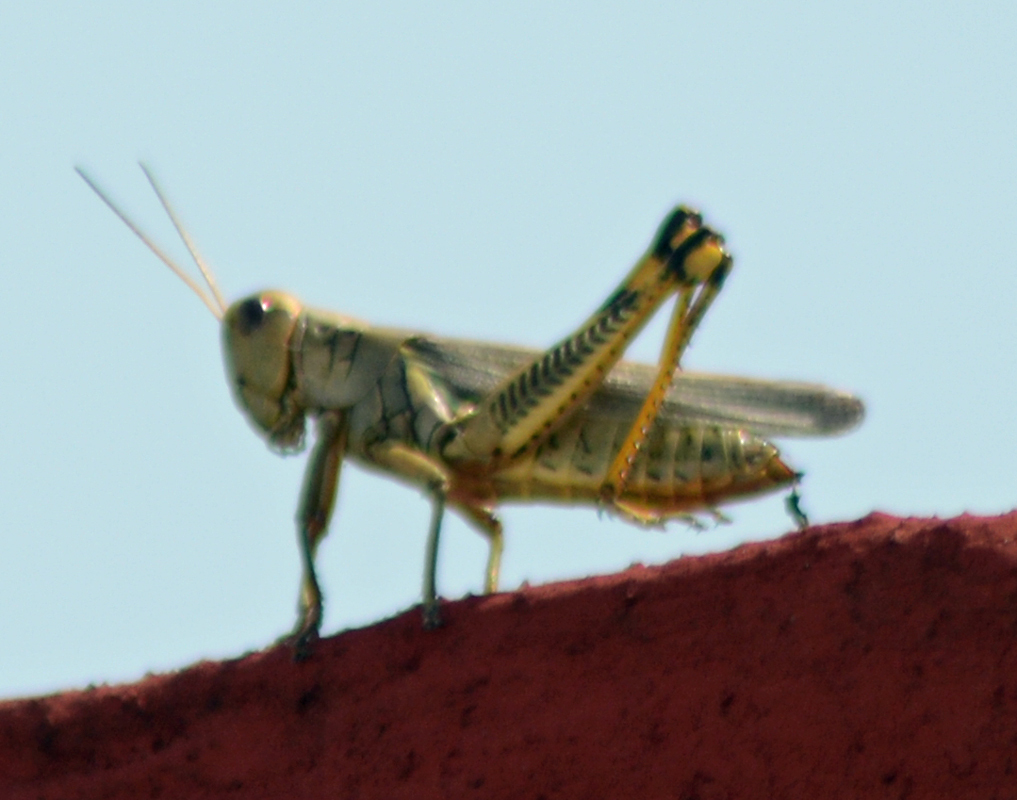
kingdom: Animalia
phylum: Arthropoda
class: Insecta
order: Orthoptera
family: Acrididae
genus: Melanoplus
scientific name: Melanoplus differentialis
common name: Differential grasshopper
